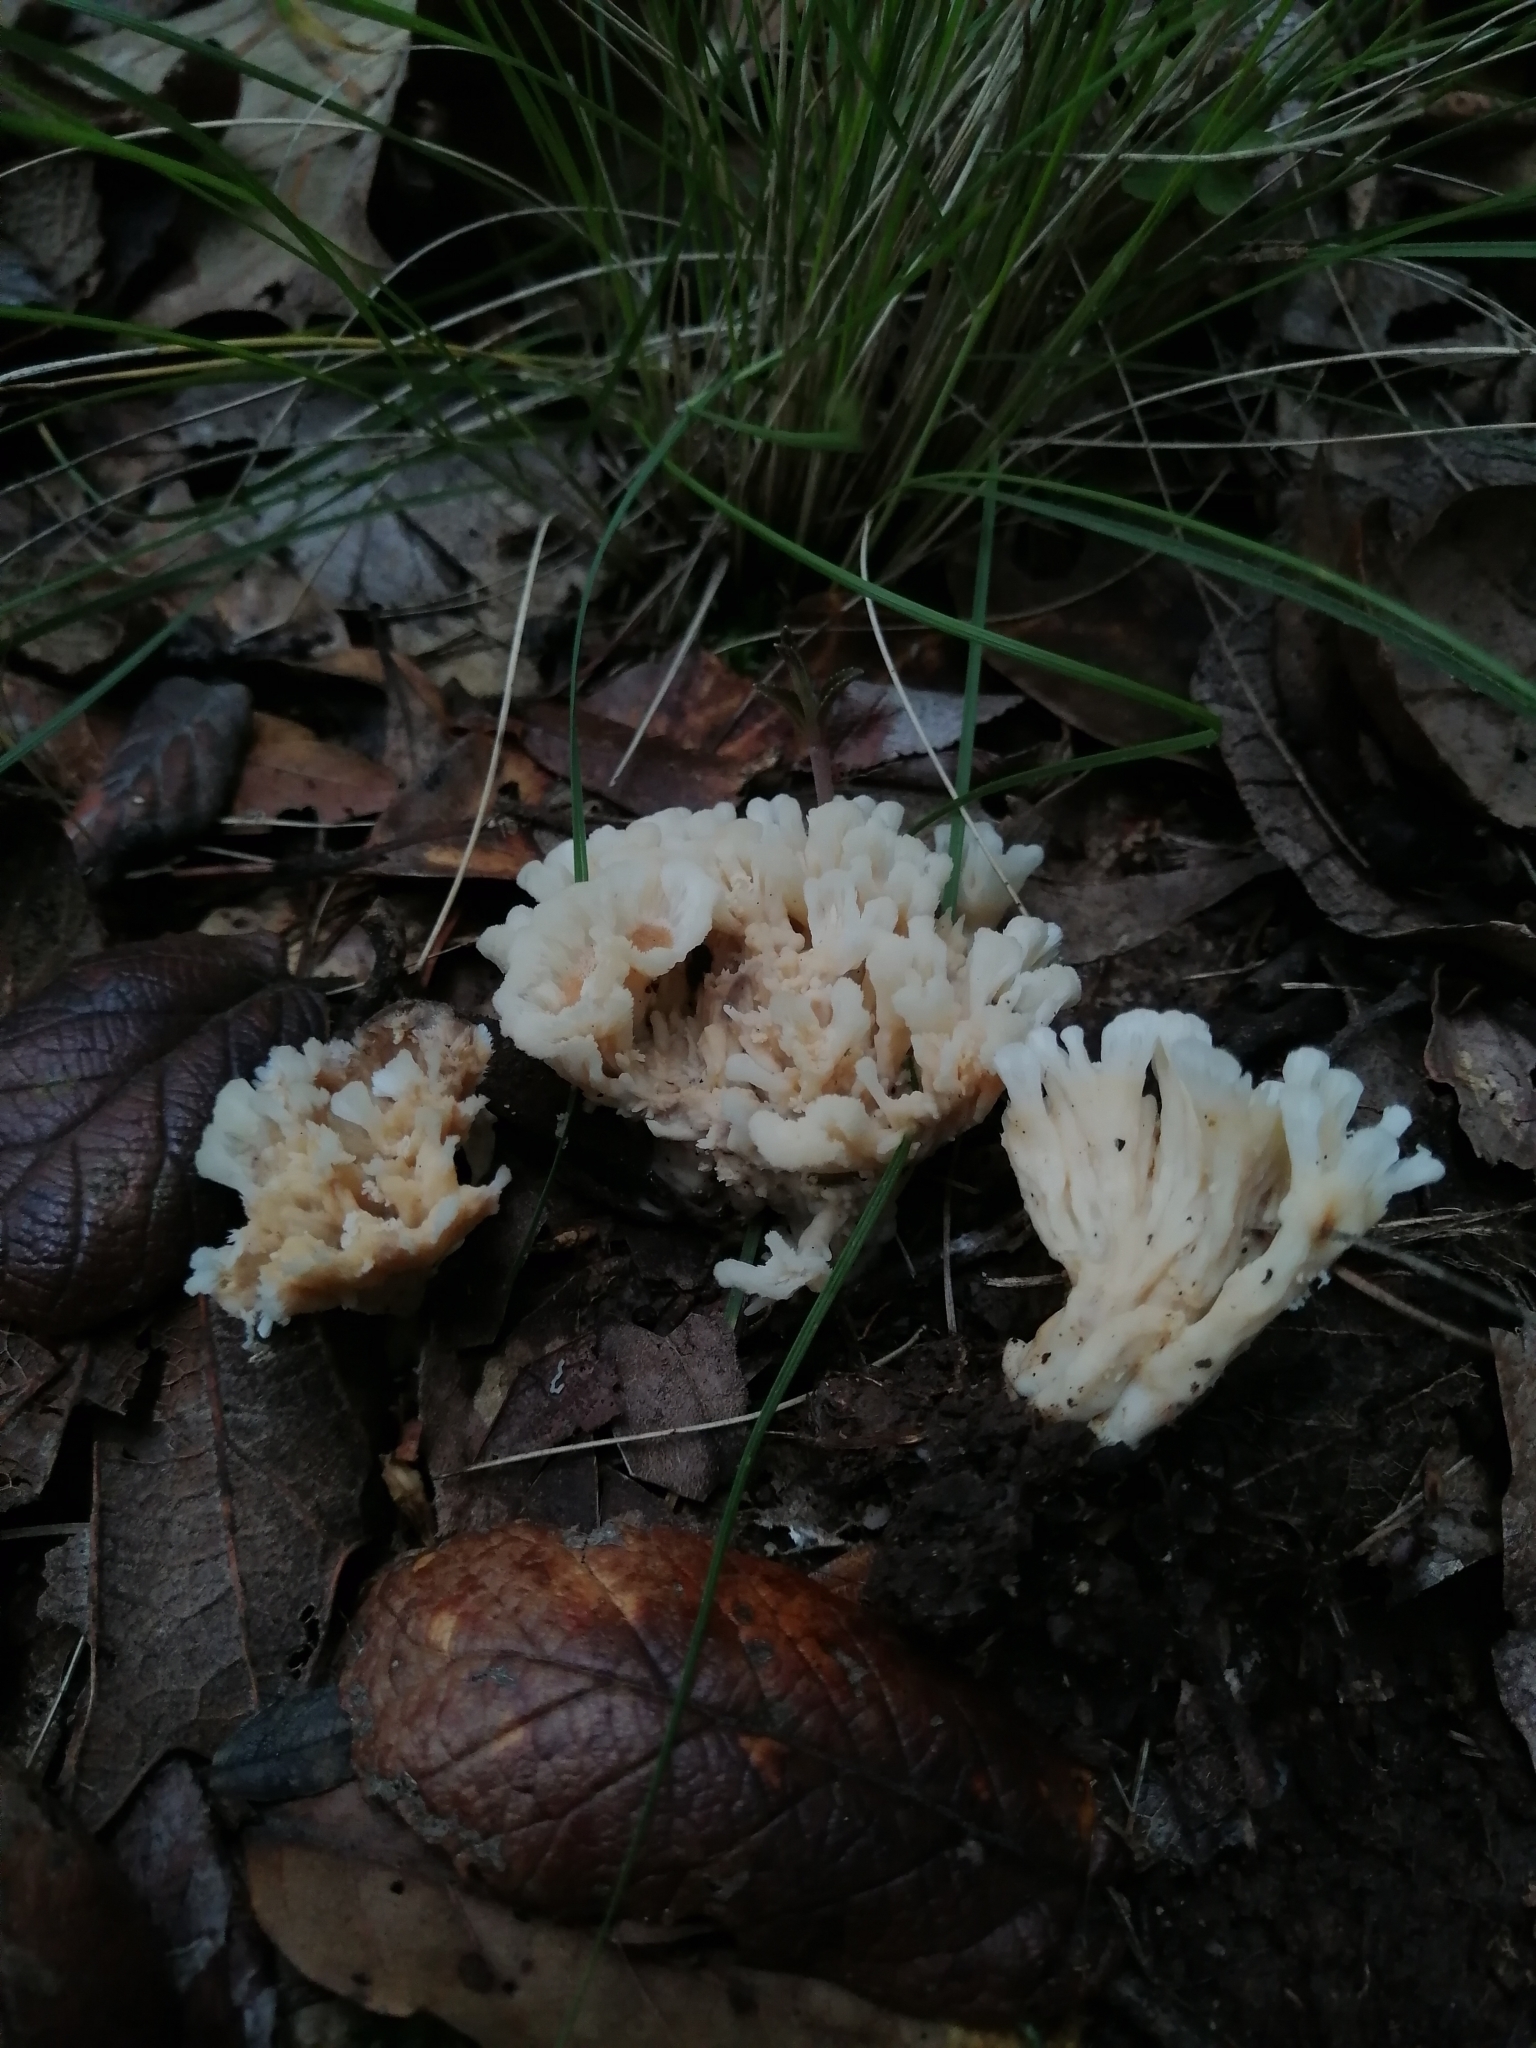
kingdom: Fungi
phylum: Basidiomycota
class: Agaricomycetes
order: Sebacinales
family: Sebacinaceae
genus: Sebacina
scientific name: Sebacina schweinitzii
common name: Jellied false coral fungus
